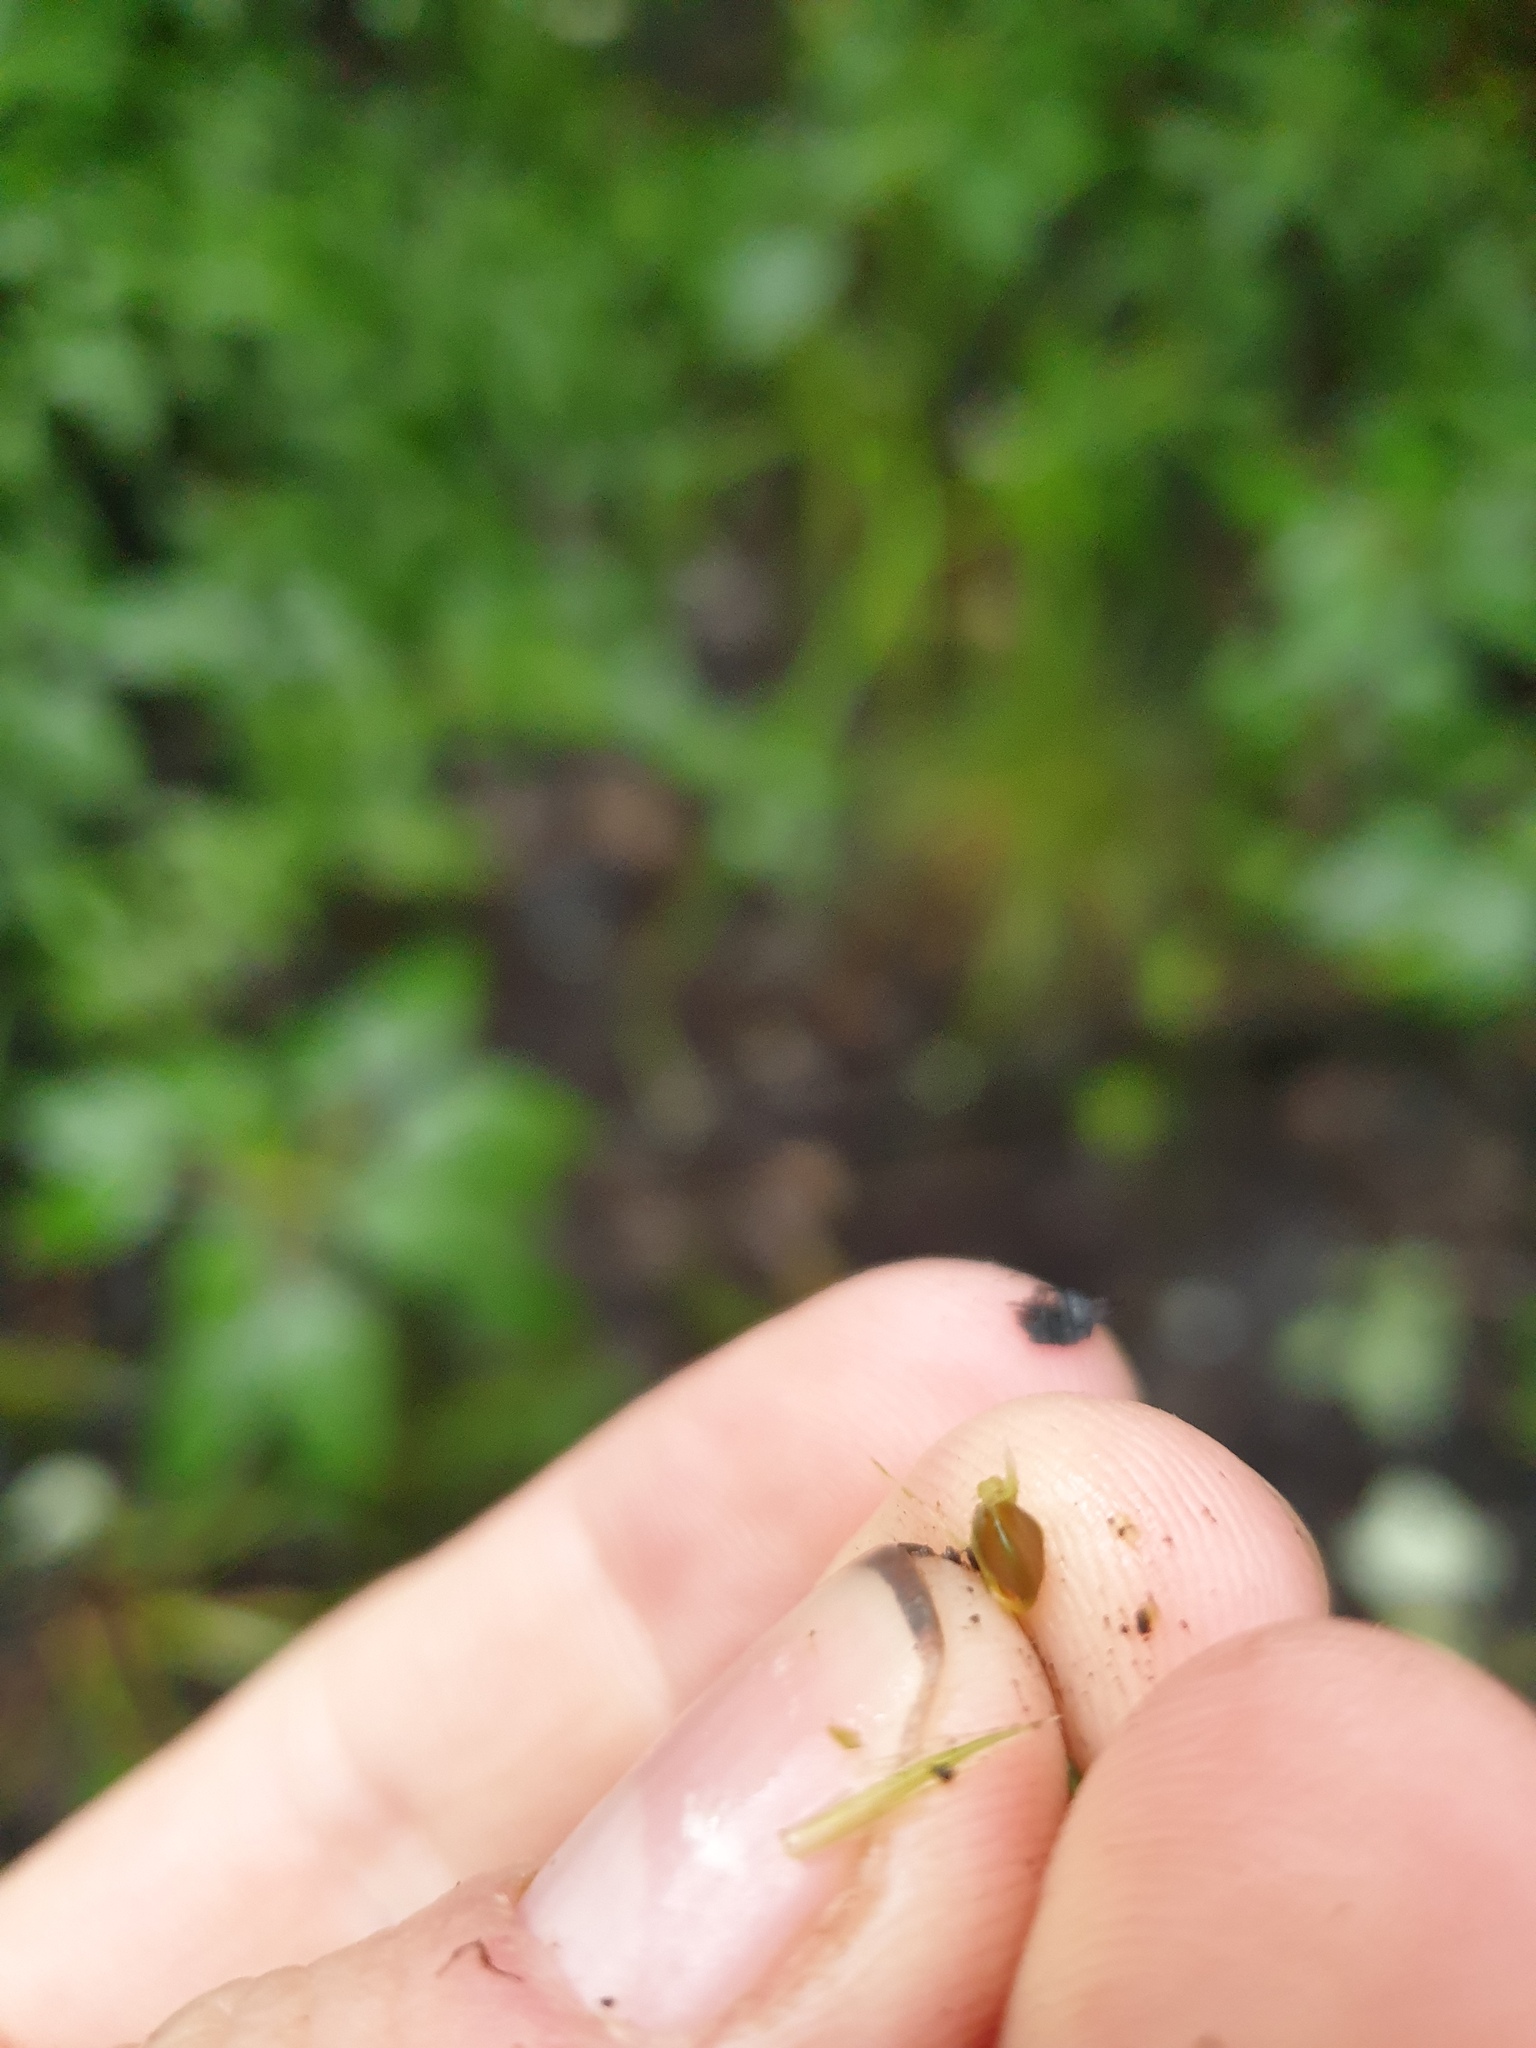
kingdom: Plantae
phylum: Tracheophyta
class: Liliopsida
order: Poales
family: Cyperaceae
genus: Carex
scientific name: Carex lupulina
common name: Hop sedge
